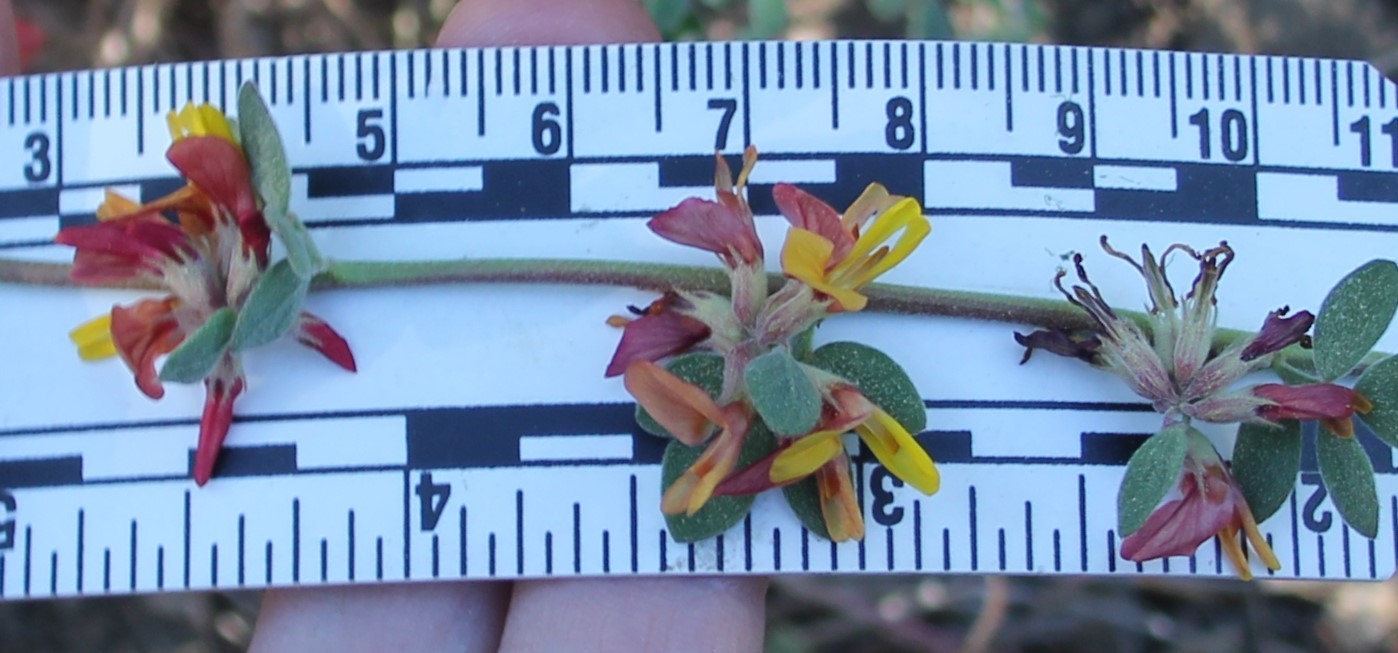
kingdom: Plantae
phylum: Tracheophyta
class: Magnoliopsida
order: Fabales
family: Fabaceae
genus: Acmispon
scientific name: Acmispon decumbens
